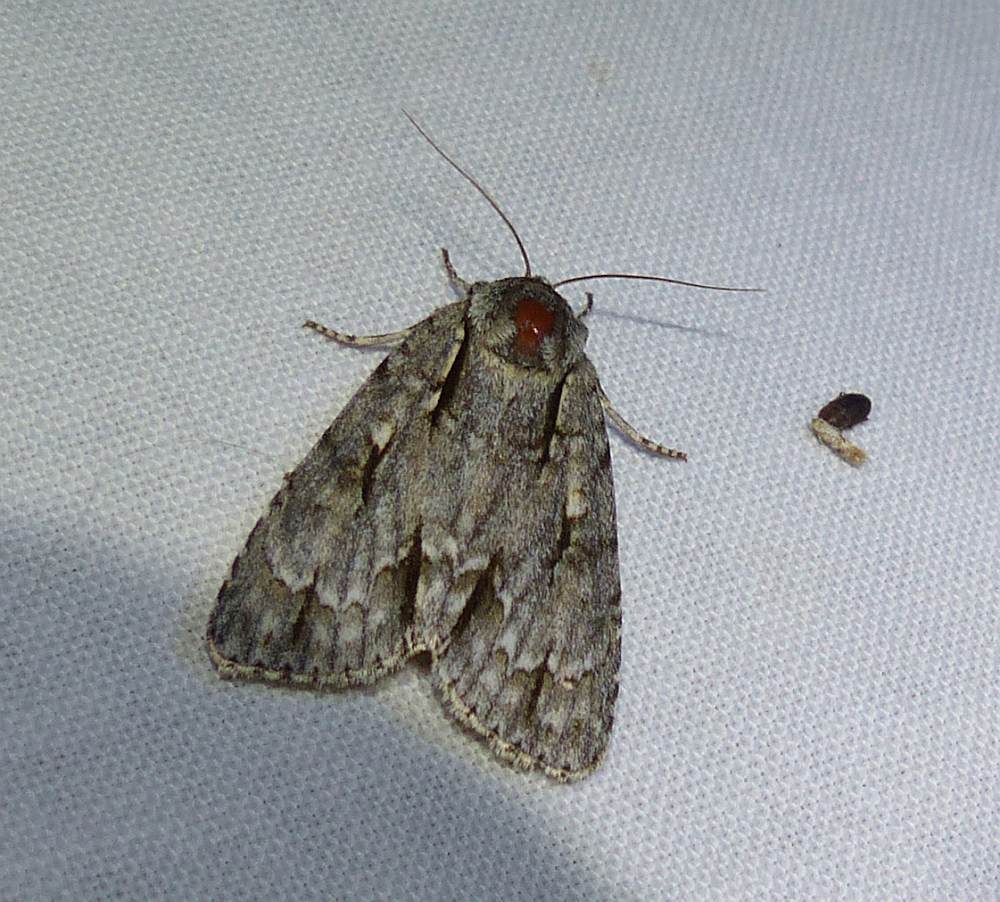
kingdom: Animalia
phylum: Arthropoda
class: Insecta
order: Lepidoptera
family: Noctuidae
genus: Acronicta
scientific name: Acronicta laetifica
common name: Pleasant dagger
